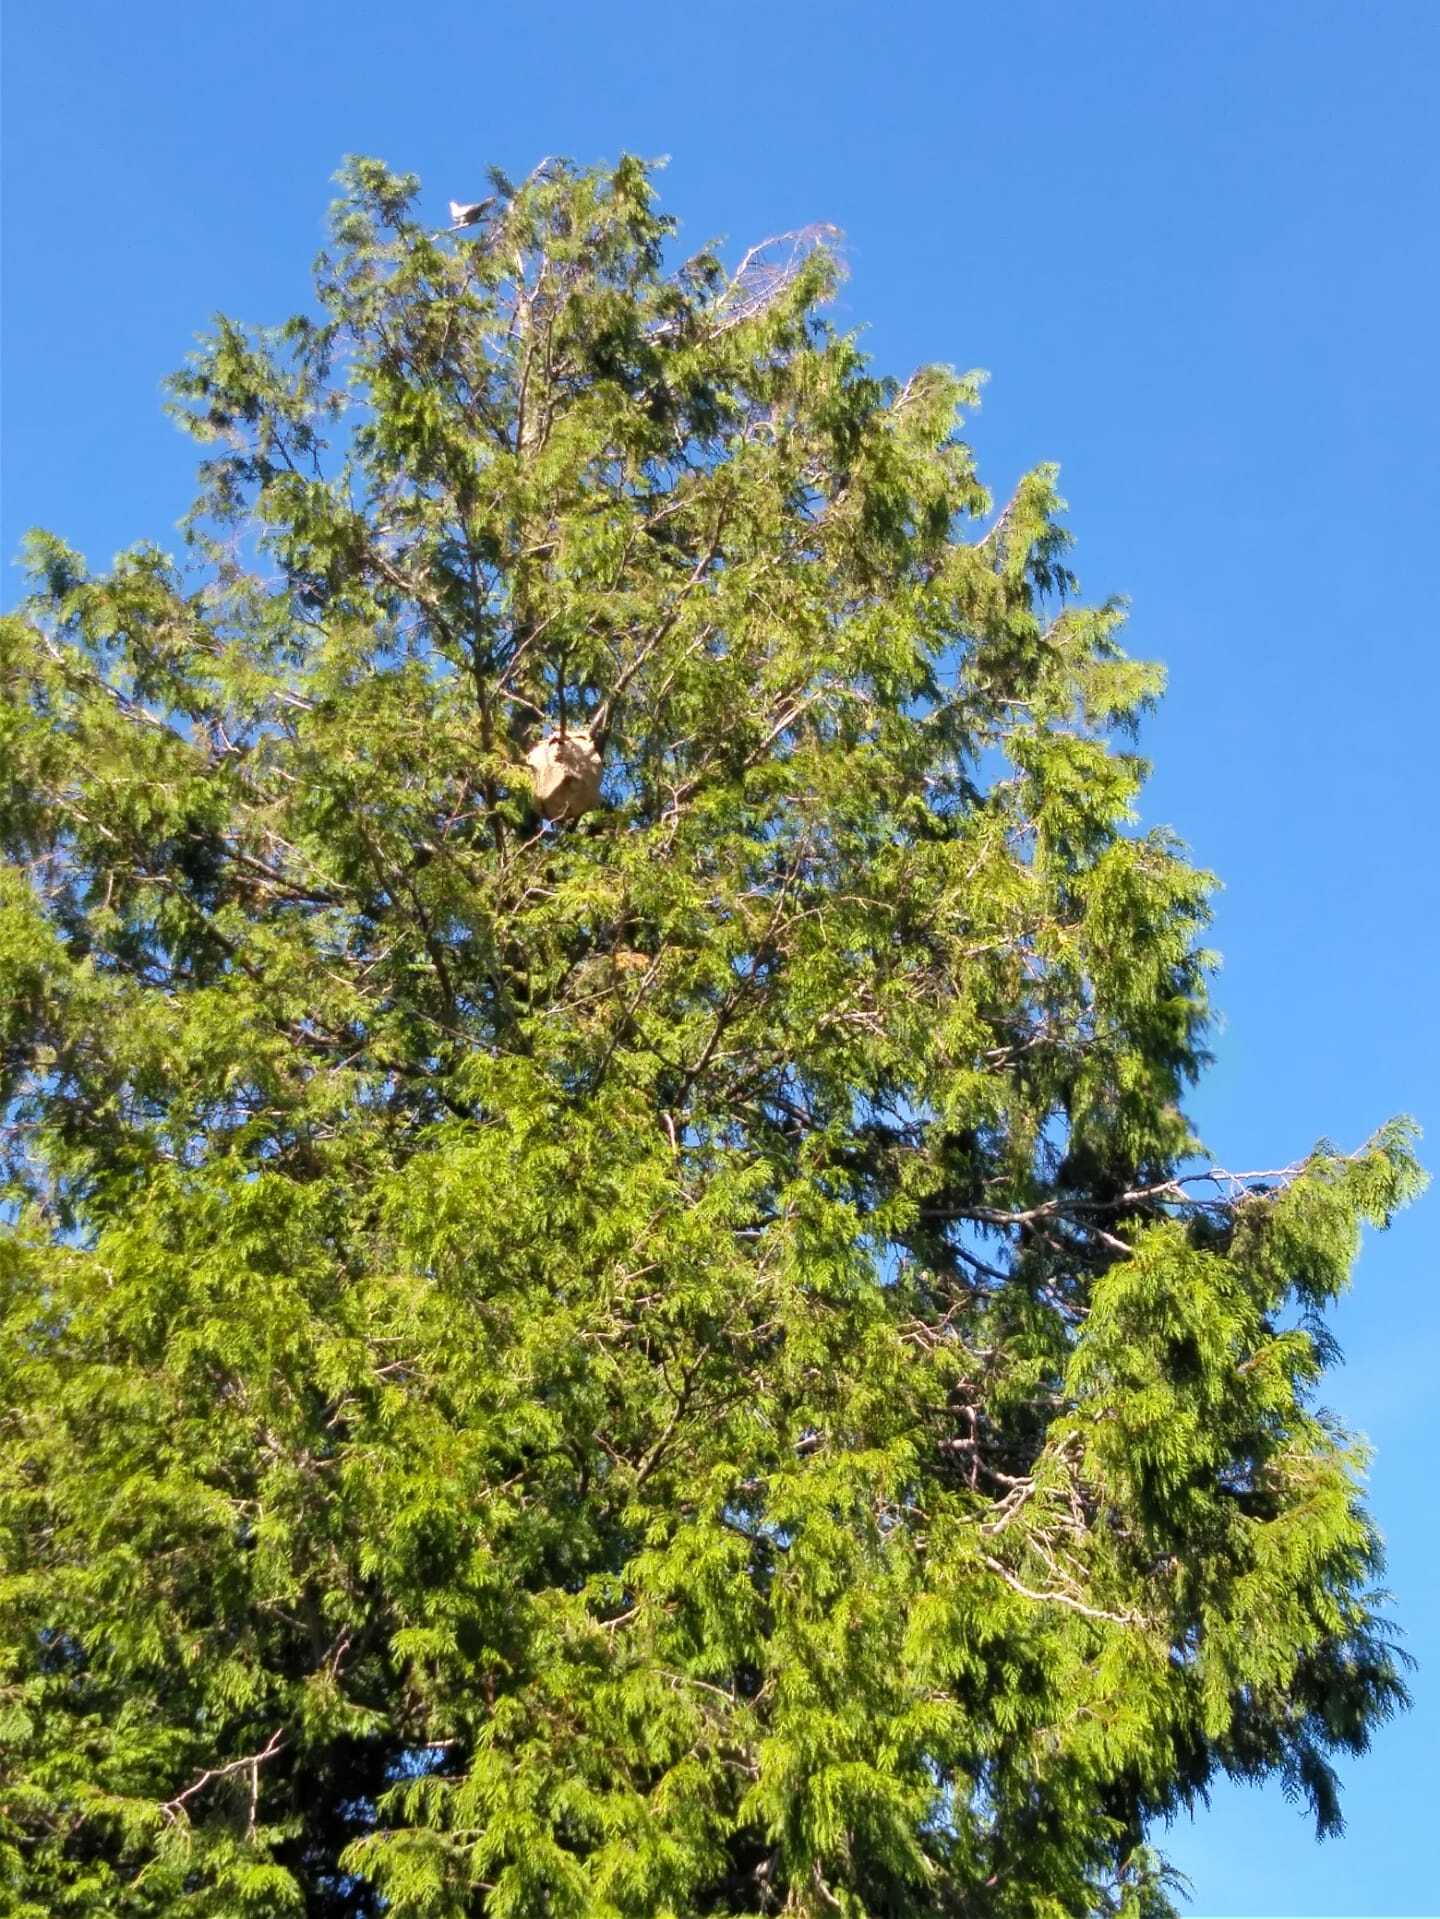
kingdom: Animalia
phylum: Arthropoda
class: Insecta
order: Hymenoptera
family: Vespidae
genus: Vespa
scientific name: Vespa velutina
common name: Asian hornet
